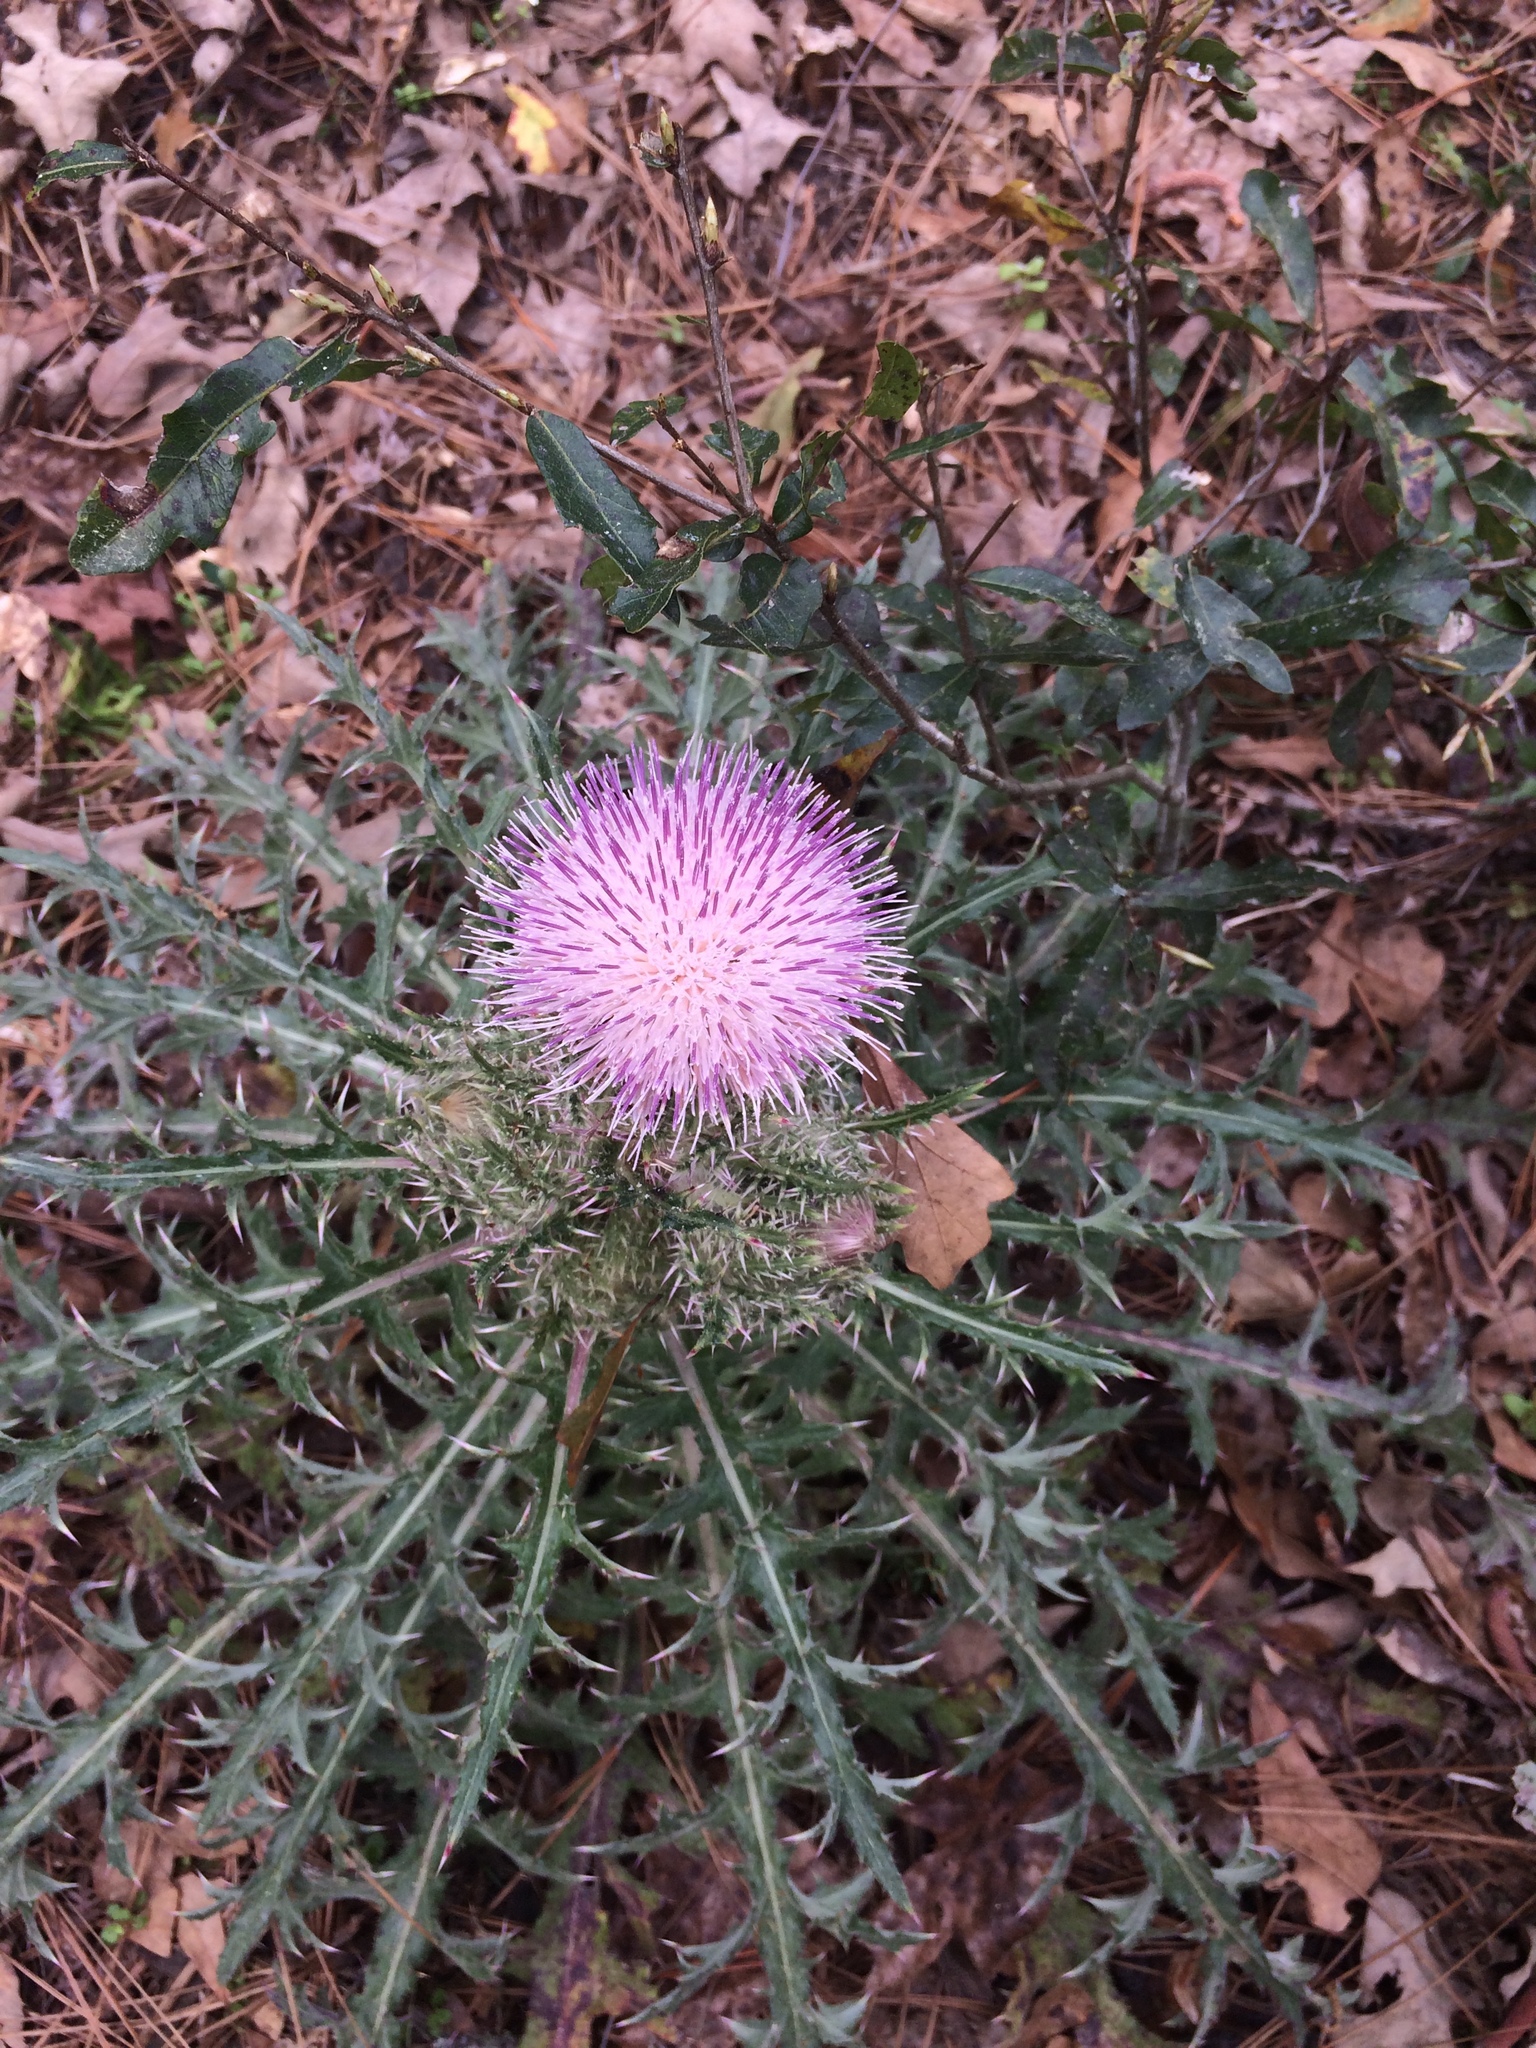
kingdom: Plantae
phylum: Tracheophyta
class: Magnoliopsida
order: Asterales
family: Asteraceae
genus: Cirsium
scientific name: Cirsium horridulum
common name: Bristly thistle
